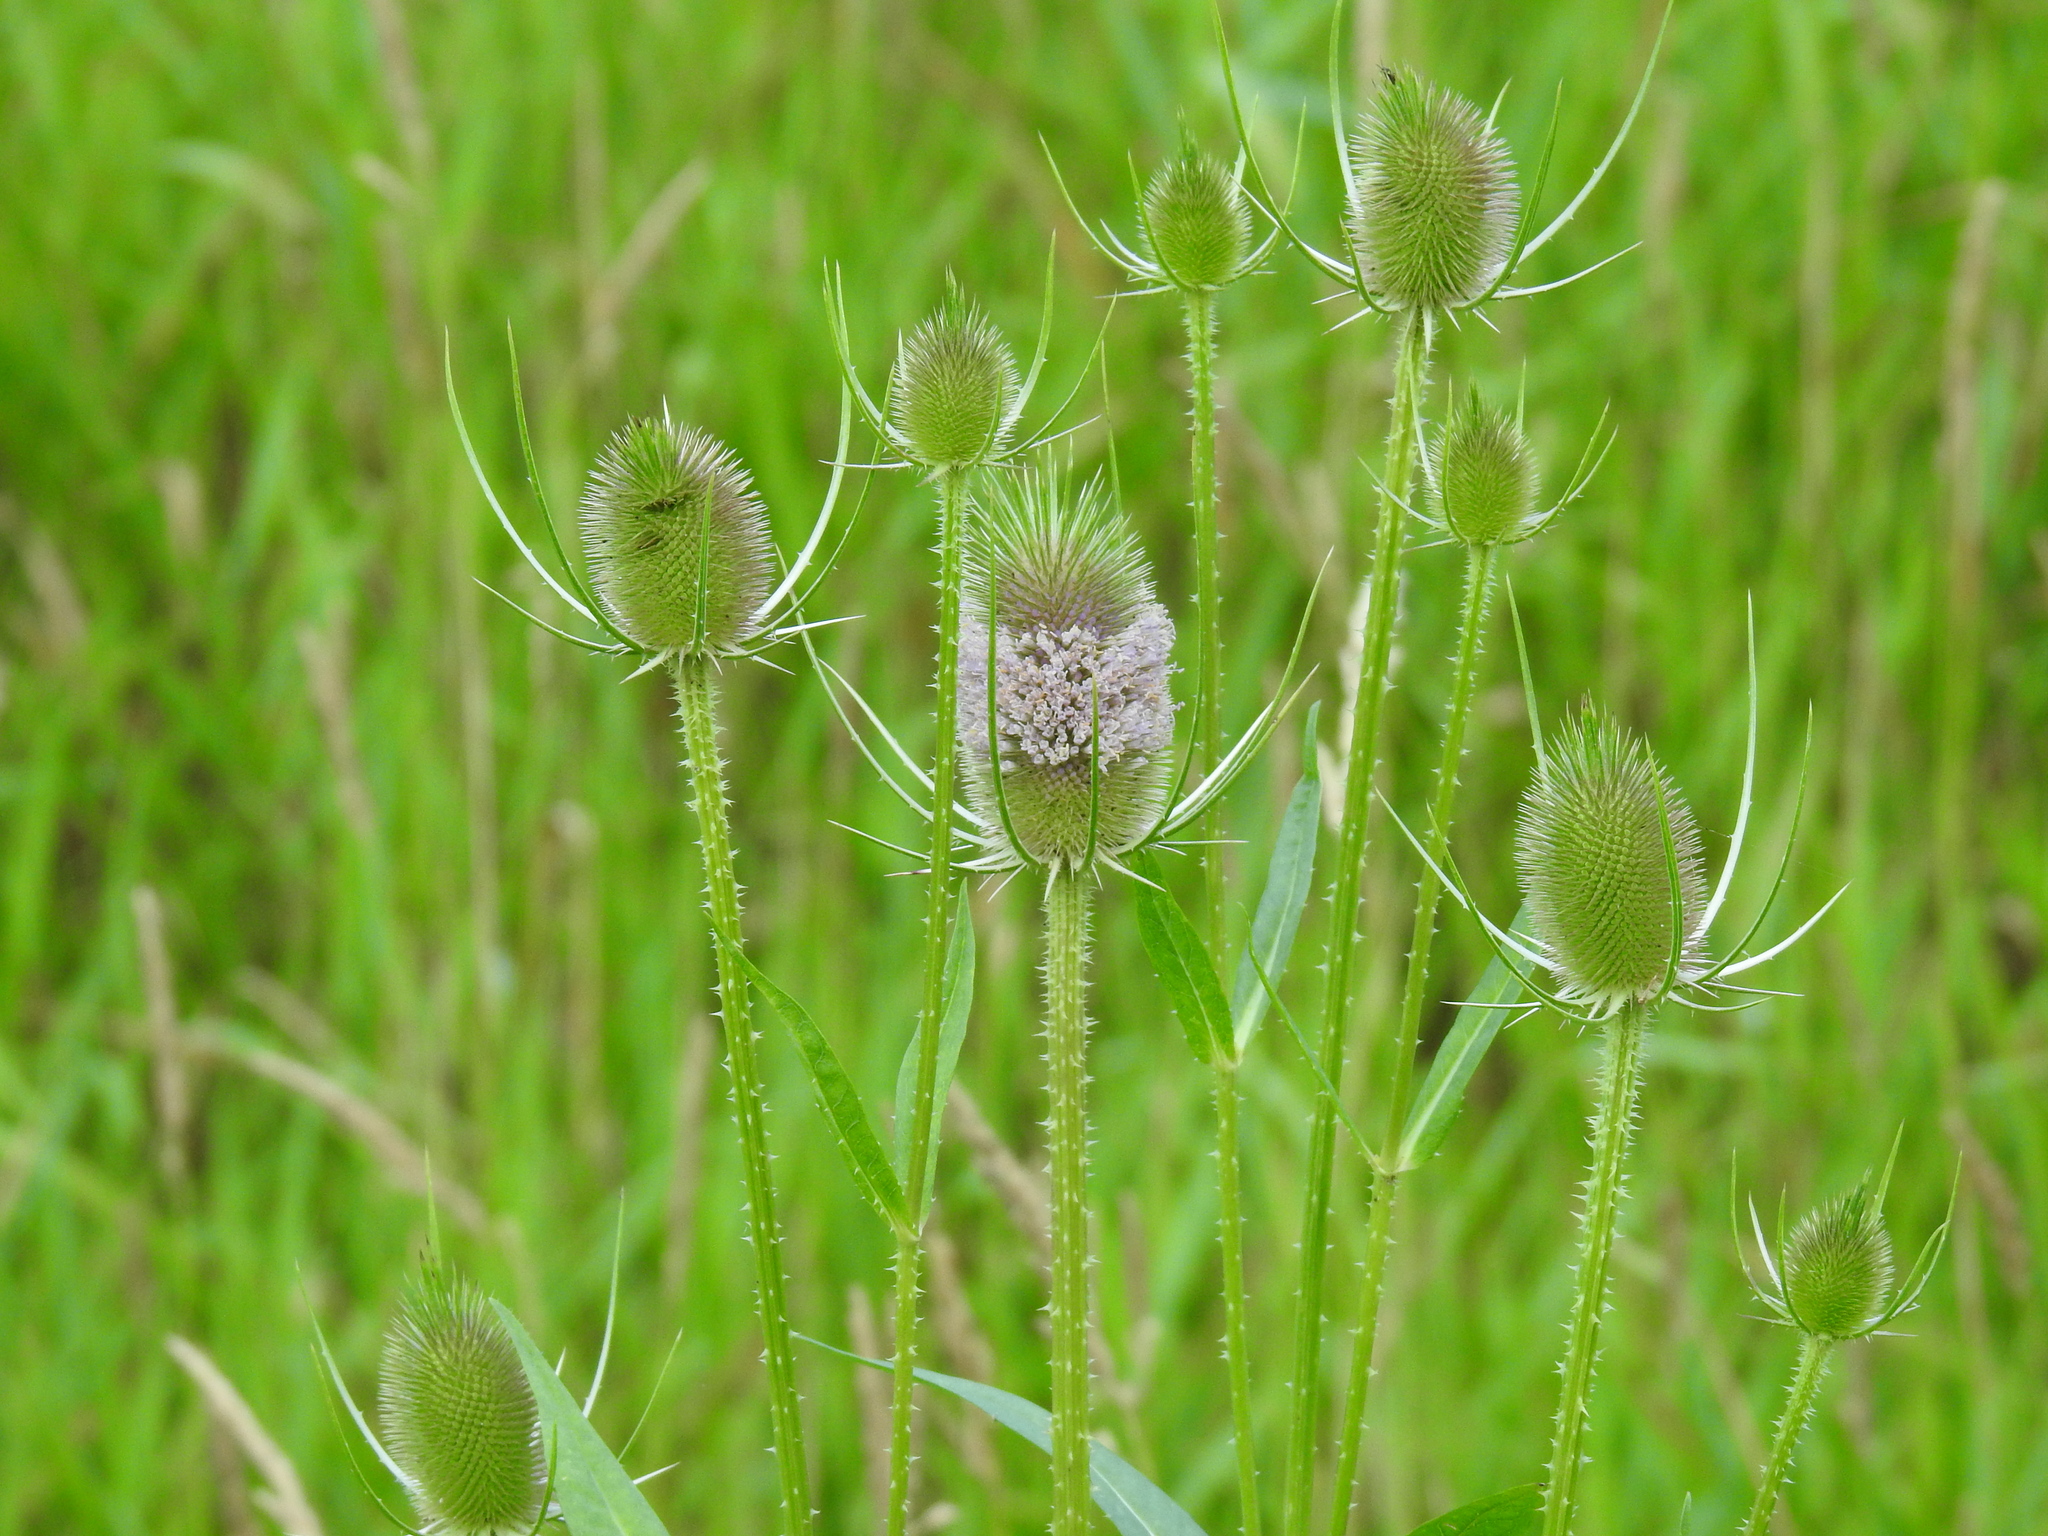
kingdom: Plantae
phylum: Tracheophyta
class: Magnoliopsida
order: Dipsacales
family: Caprifoliaceae
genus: Dipsacus
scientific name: Dipsacus fullonum
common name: Teasel
